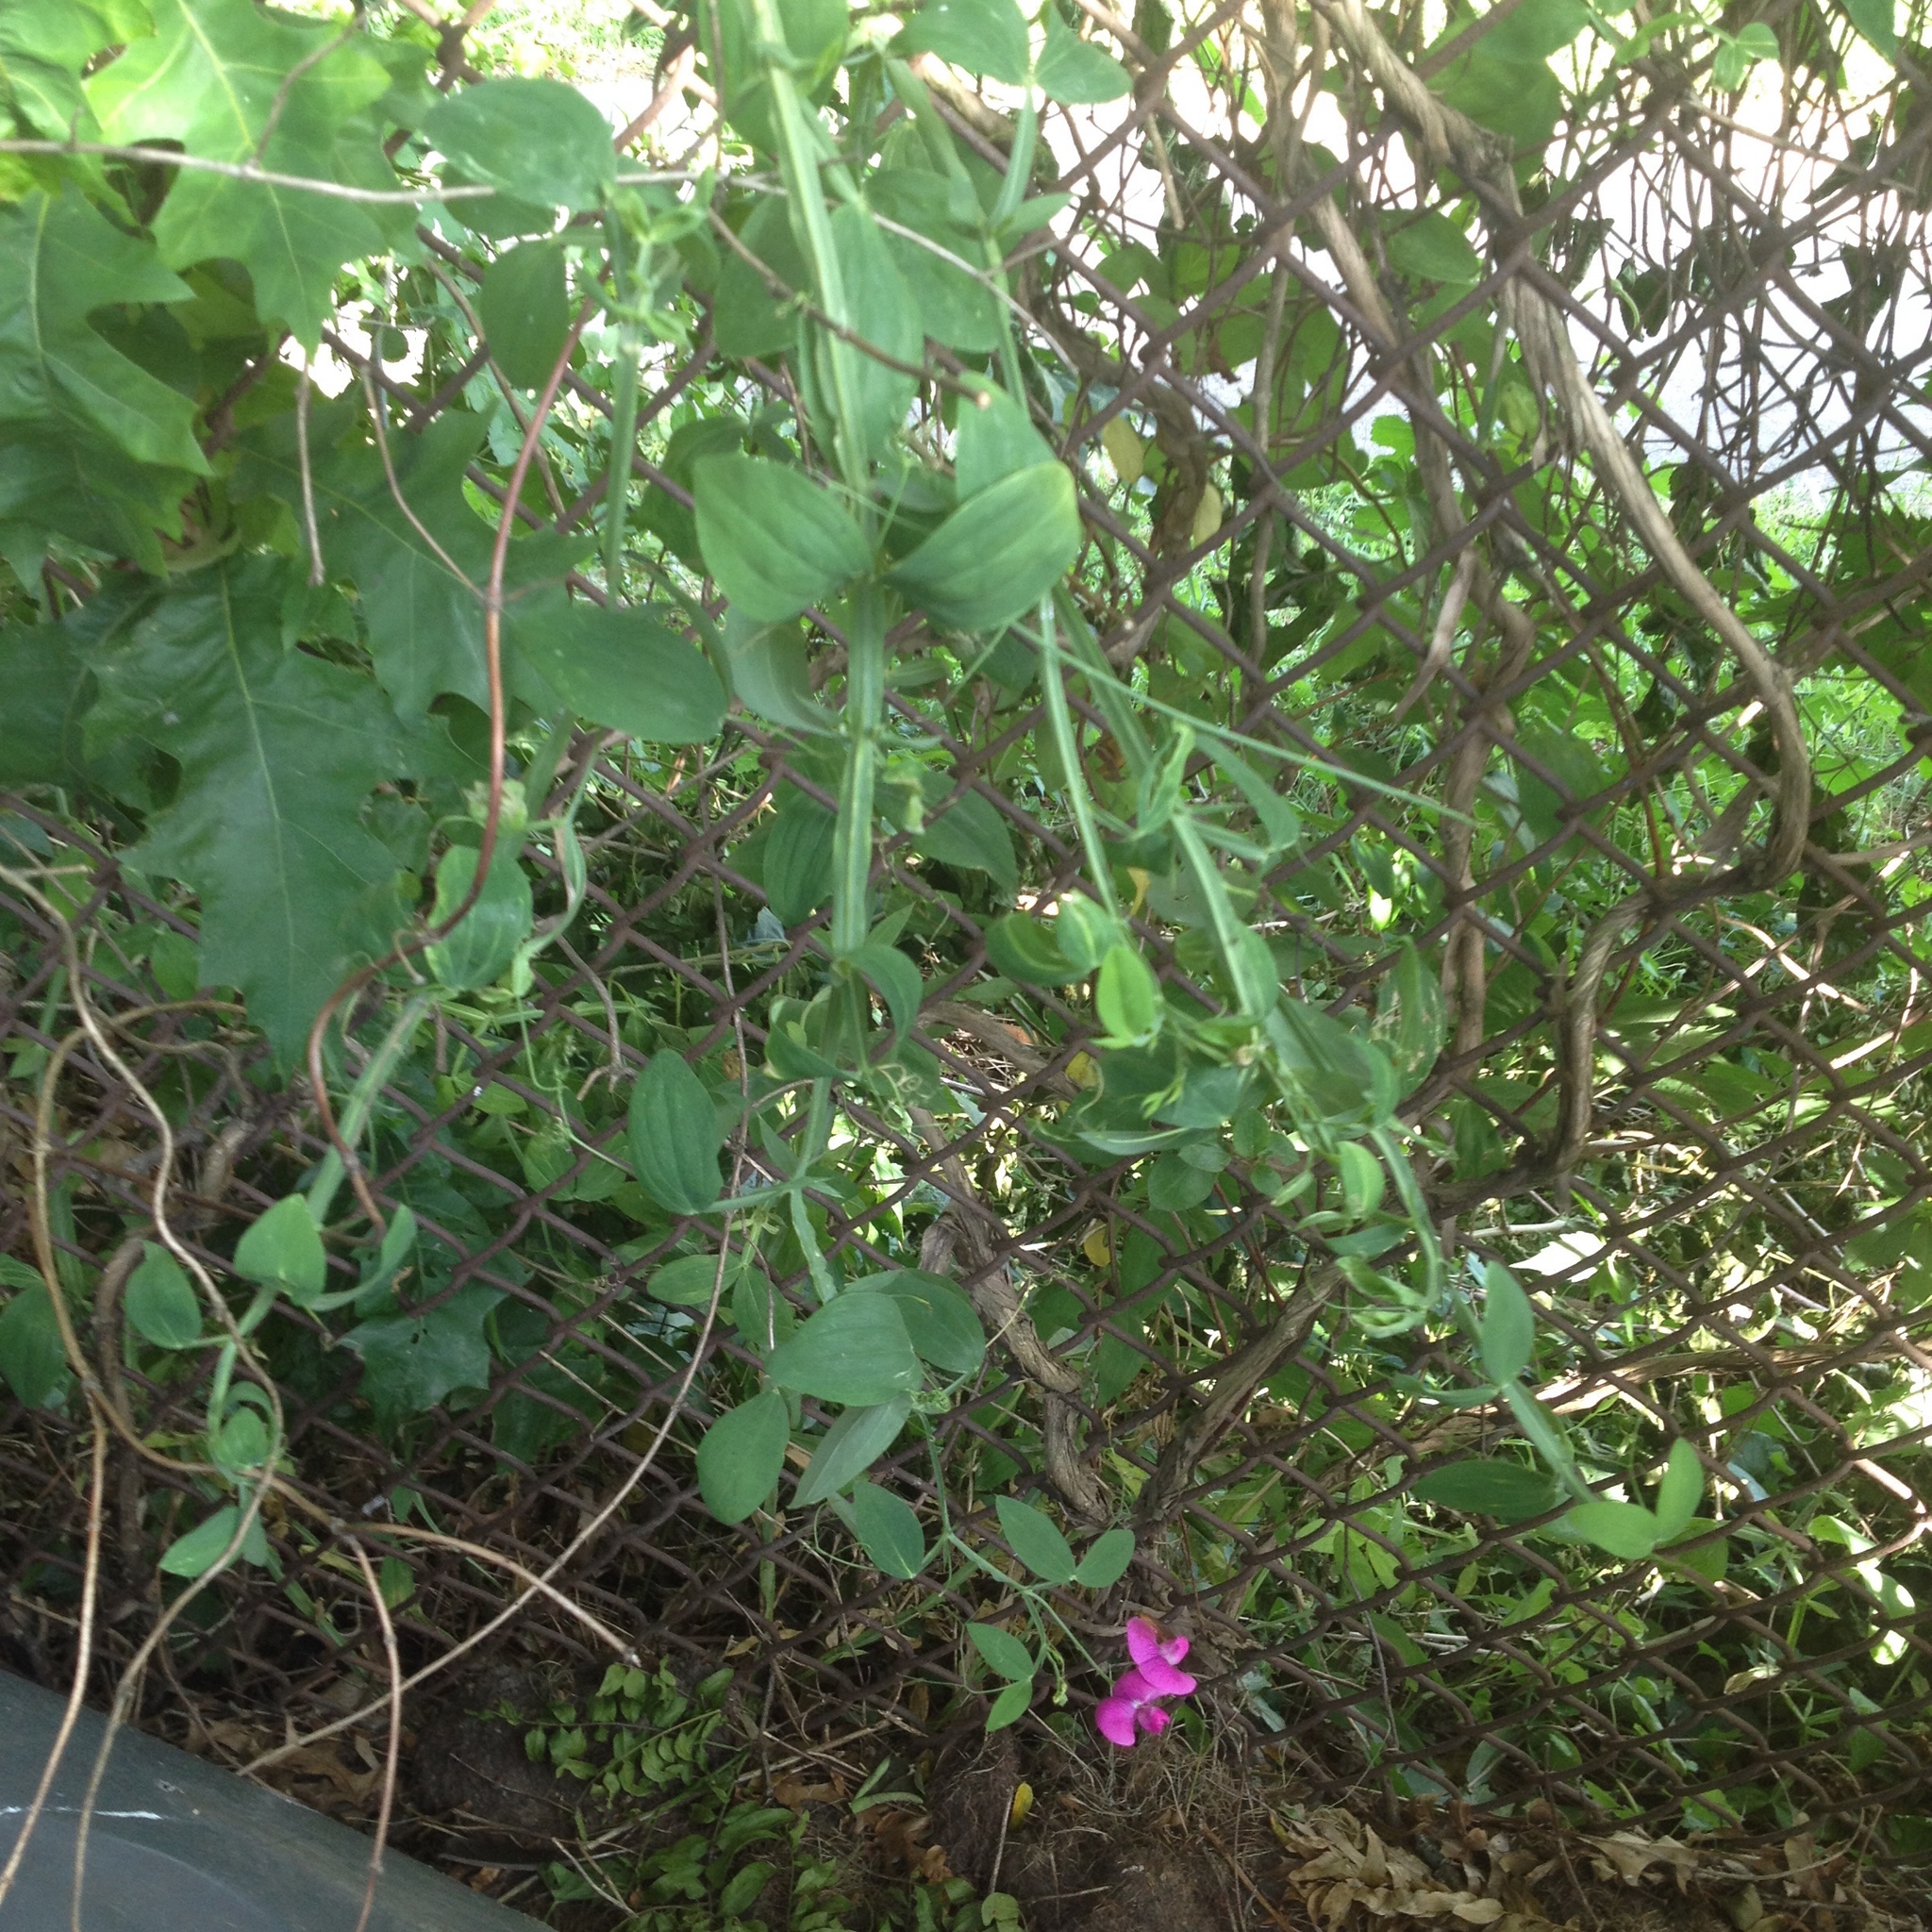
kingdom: Plantae
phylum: Tracheophyta
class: Magnoliopsida
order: Fabales
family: Fabaceae
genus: Lathyrus
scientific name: Lathyrus latifolius
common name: Perennial pea
